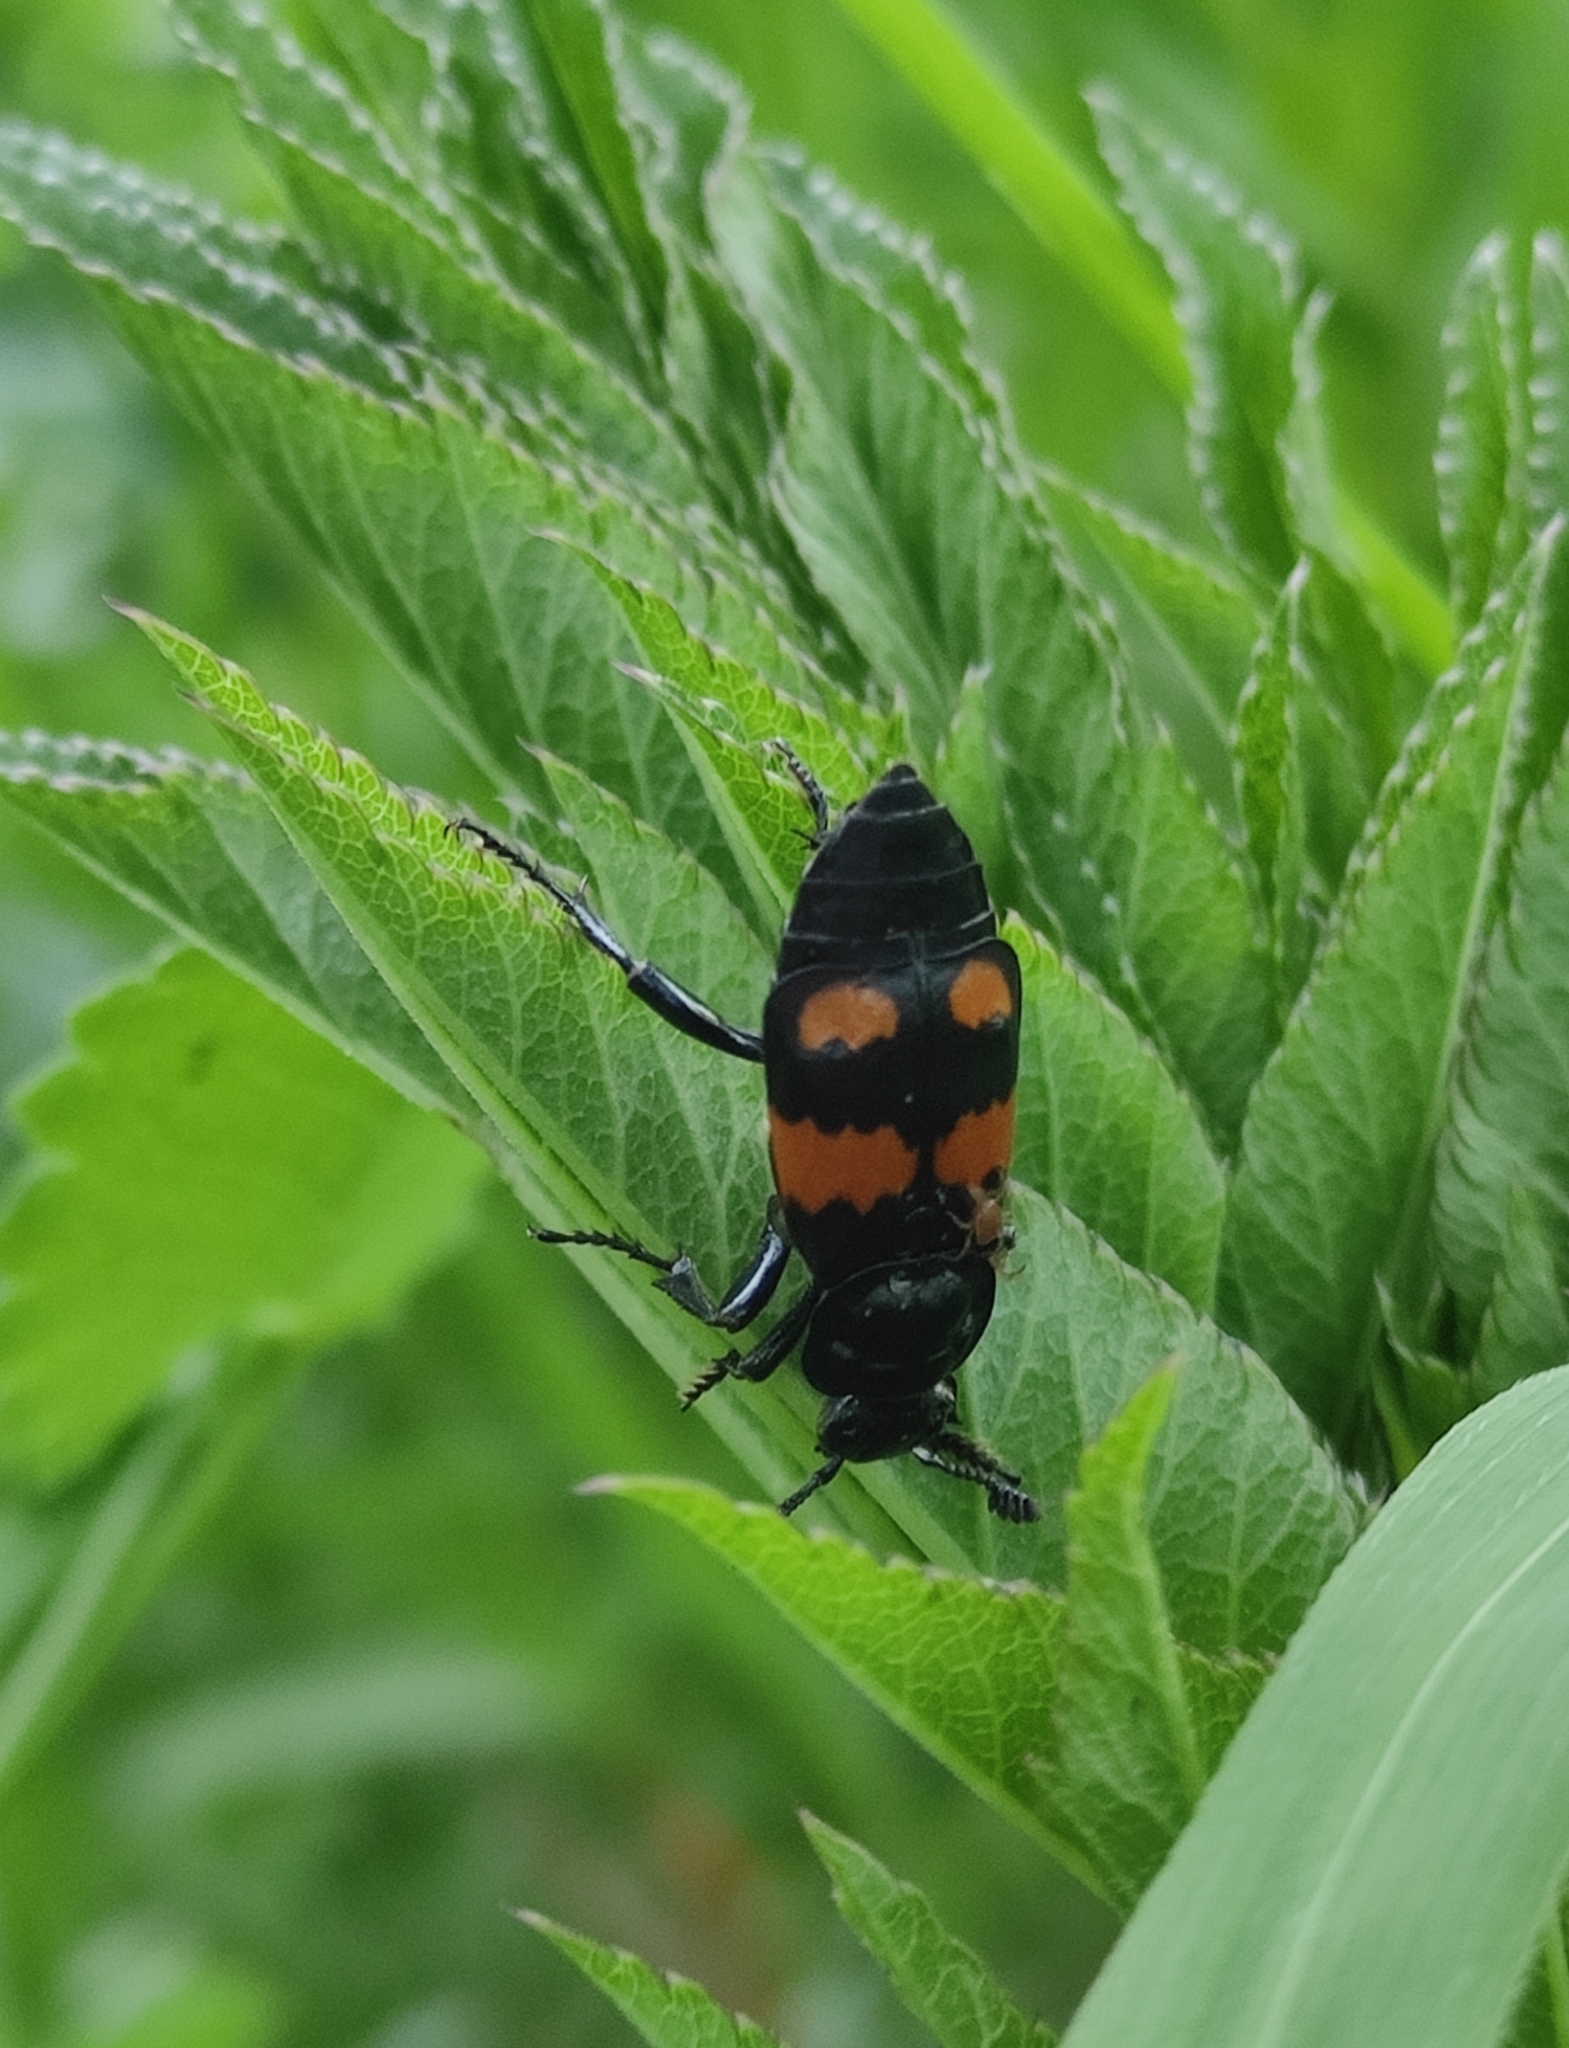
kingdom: Animalia
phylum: Arthropoda
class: Insecta
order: Coleoptera
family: Staphylinidae
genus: Nicrophorus
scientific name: Nicrophorus vespilloides
